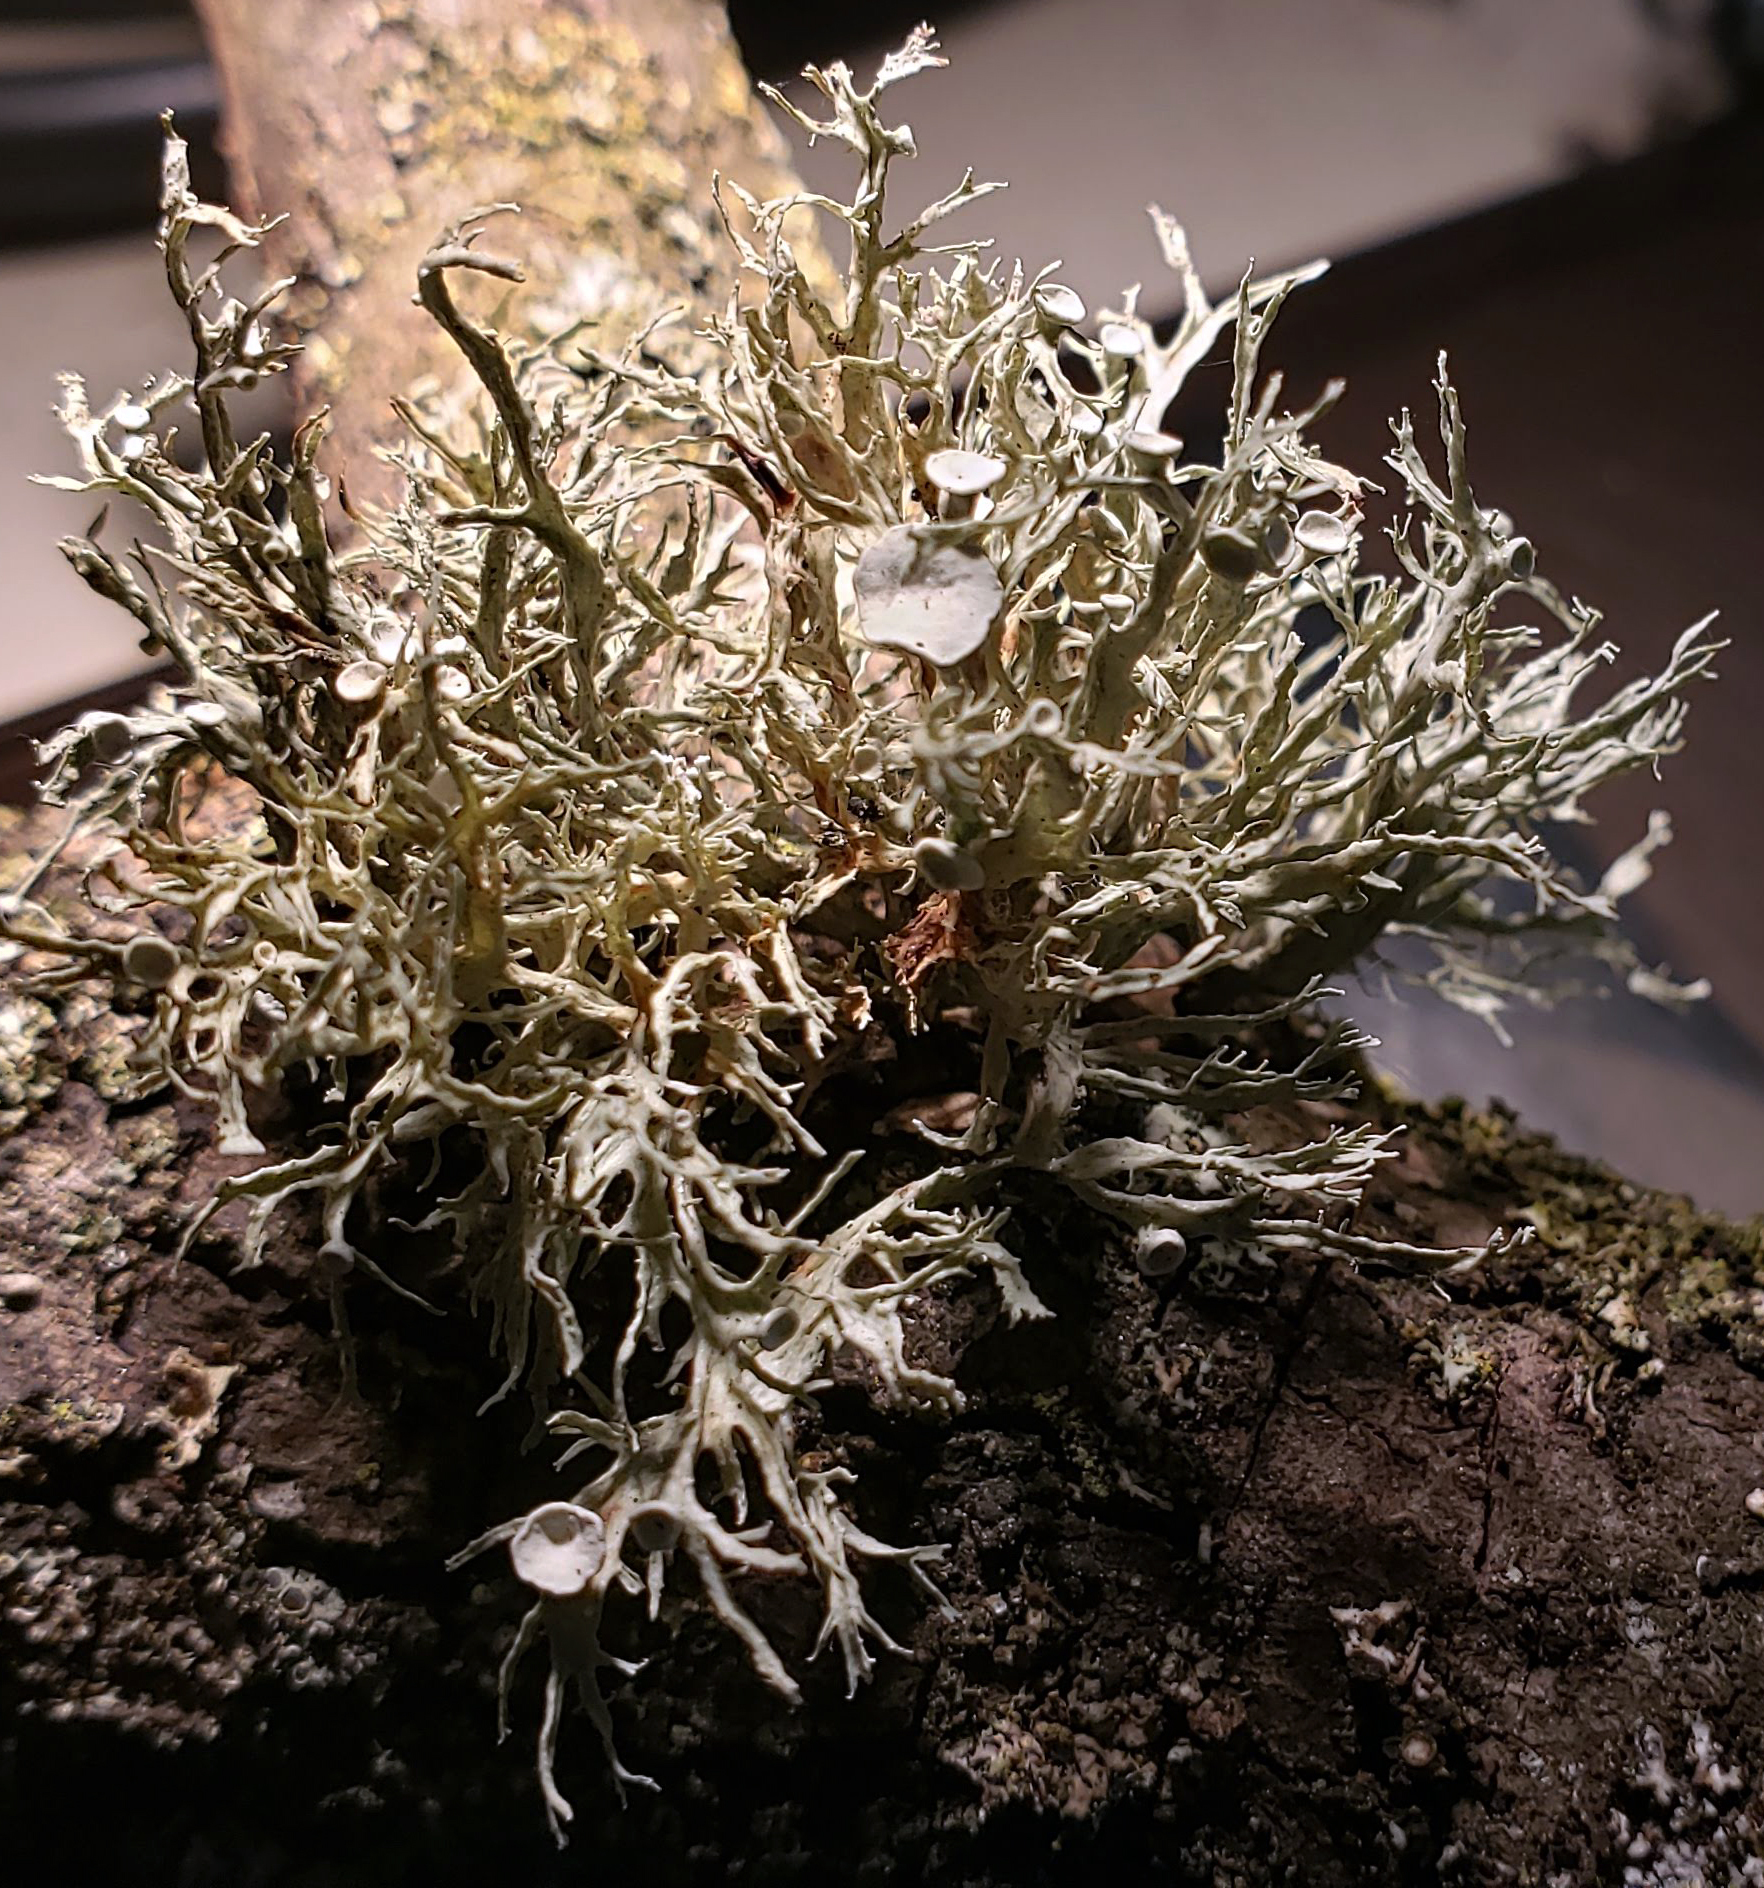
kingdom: Fungi
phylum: Ascomycota
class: Lecanoromycetes
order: Lecanorales
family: Ramalinaceae
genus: Ramalina
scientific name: Ramalina americana
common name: Sinewed bush lichen
